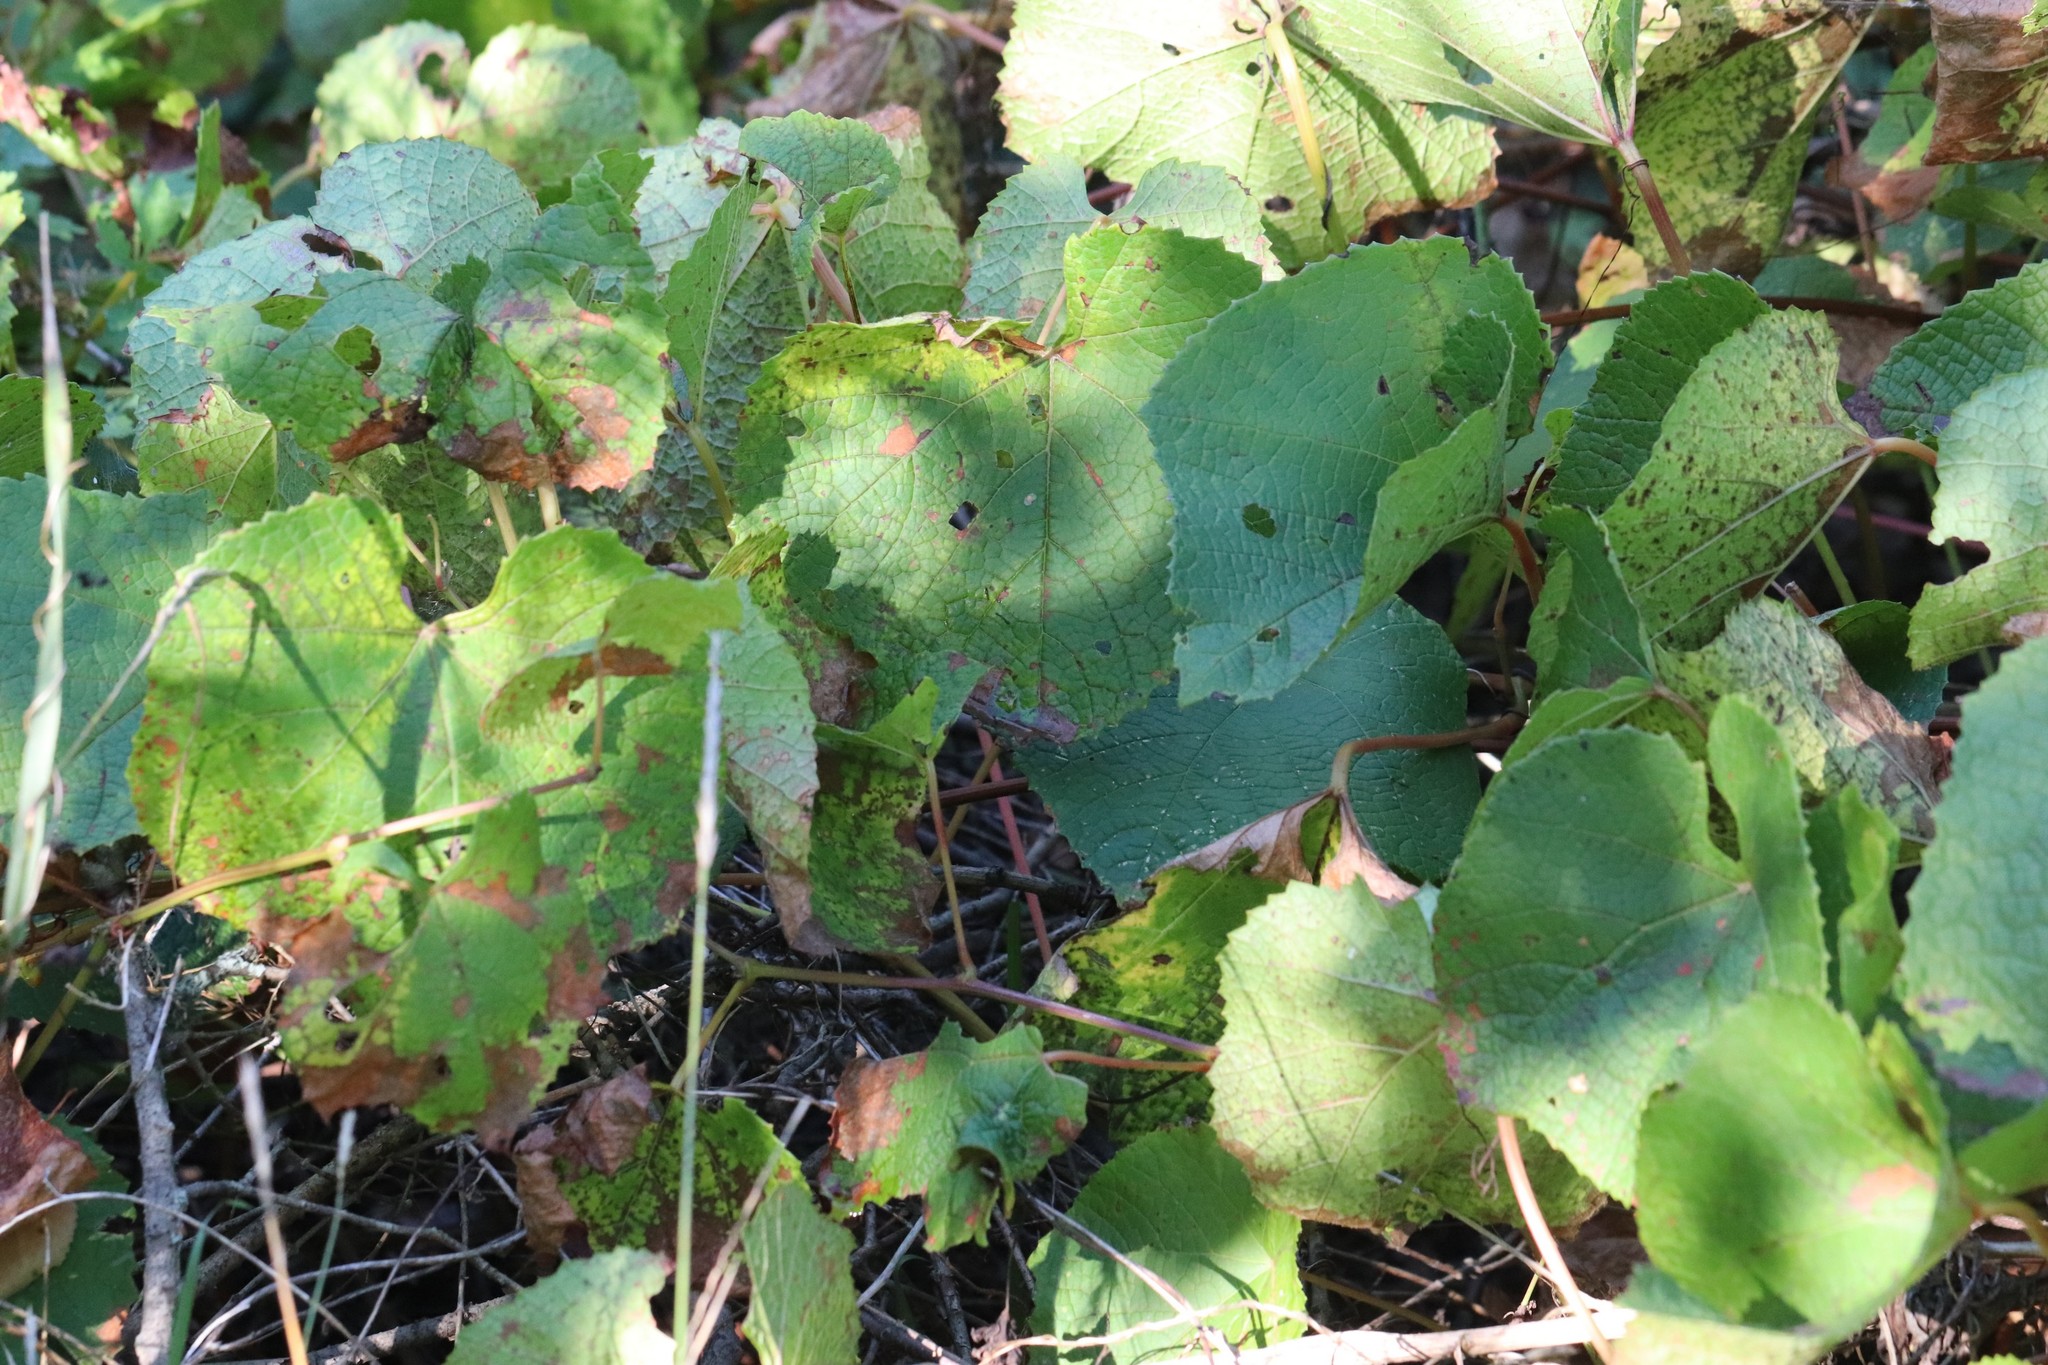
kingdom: Plantae
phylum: Tracheophyta
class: Magnoliopsida
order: Vitales
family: Vitaceae
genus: Vitis
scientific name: Vitis amurensis
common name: Amur grape
